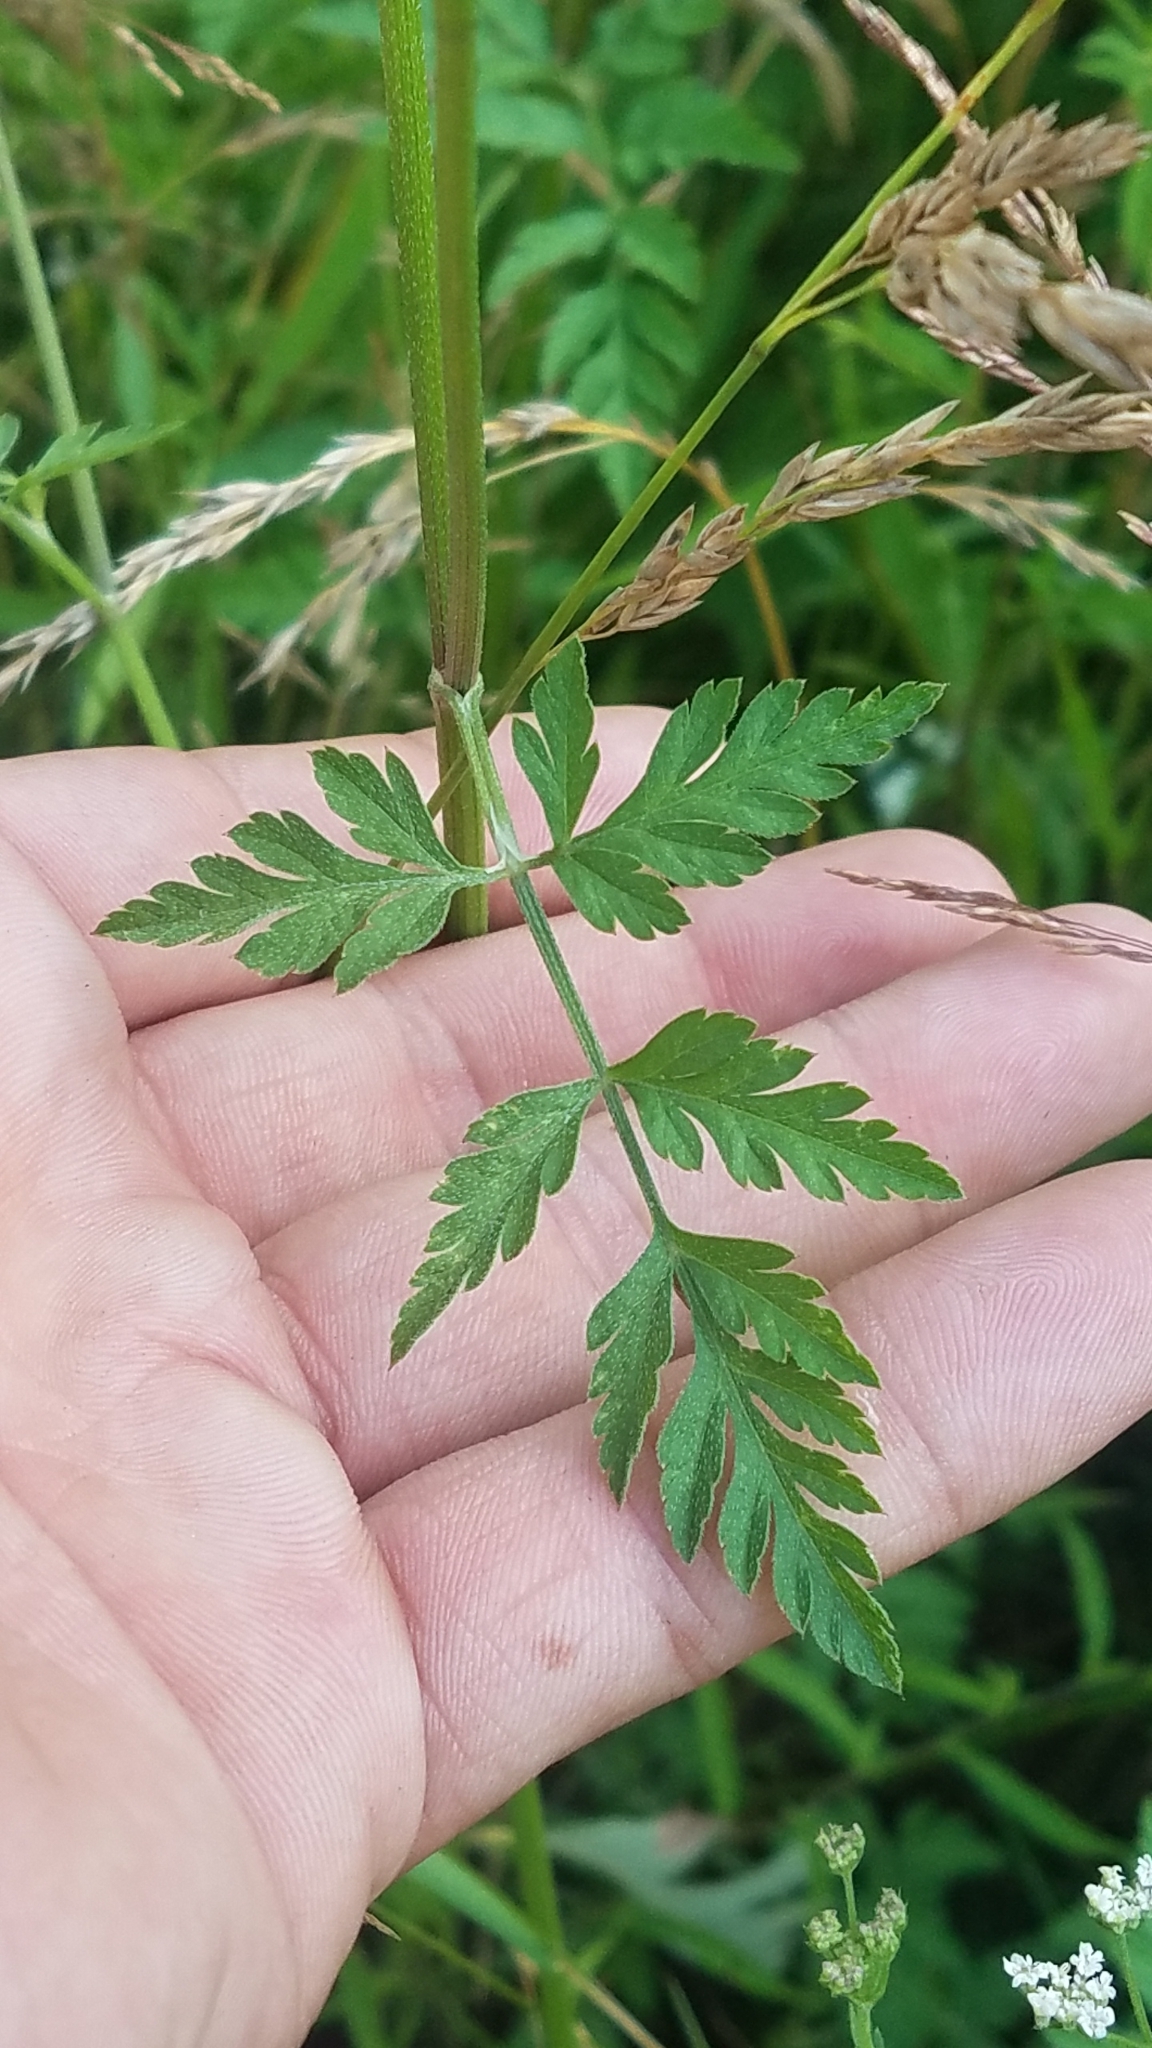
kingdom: Plantae
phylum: Tracheophyta
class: Magnoliopsida
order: Apiales
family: Apiaceae
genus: Torilis
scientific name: Torilis japonica
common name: Upright hedge-parsley
